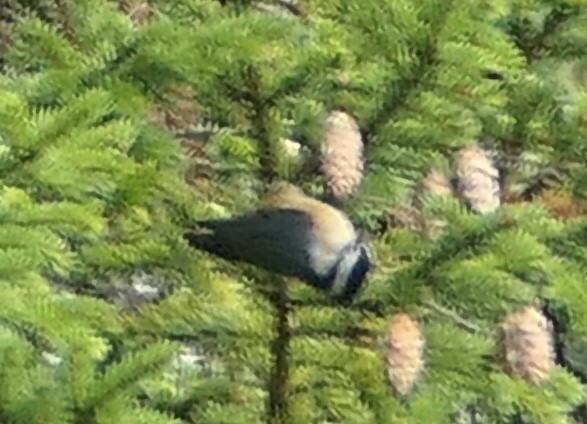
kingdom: Animalia
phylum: Chordata
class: Aves
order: Passeriformes
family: Sittidae
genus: Sitta
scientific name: Sitta canadensis
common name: Red-breasted nuthatch
